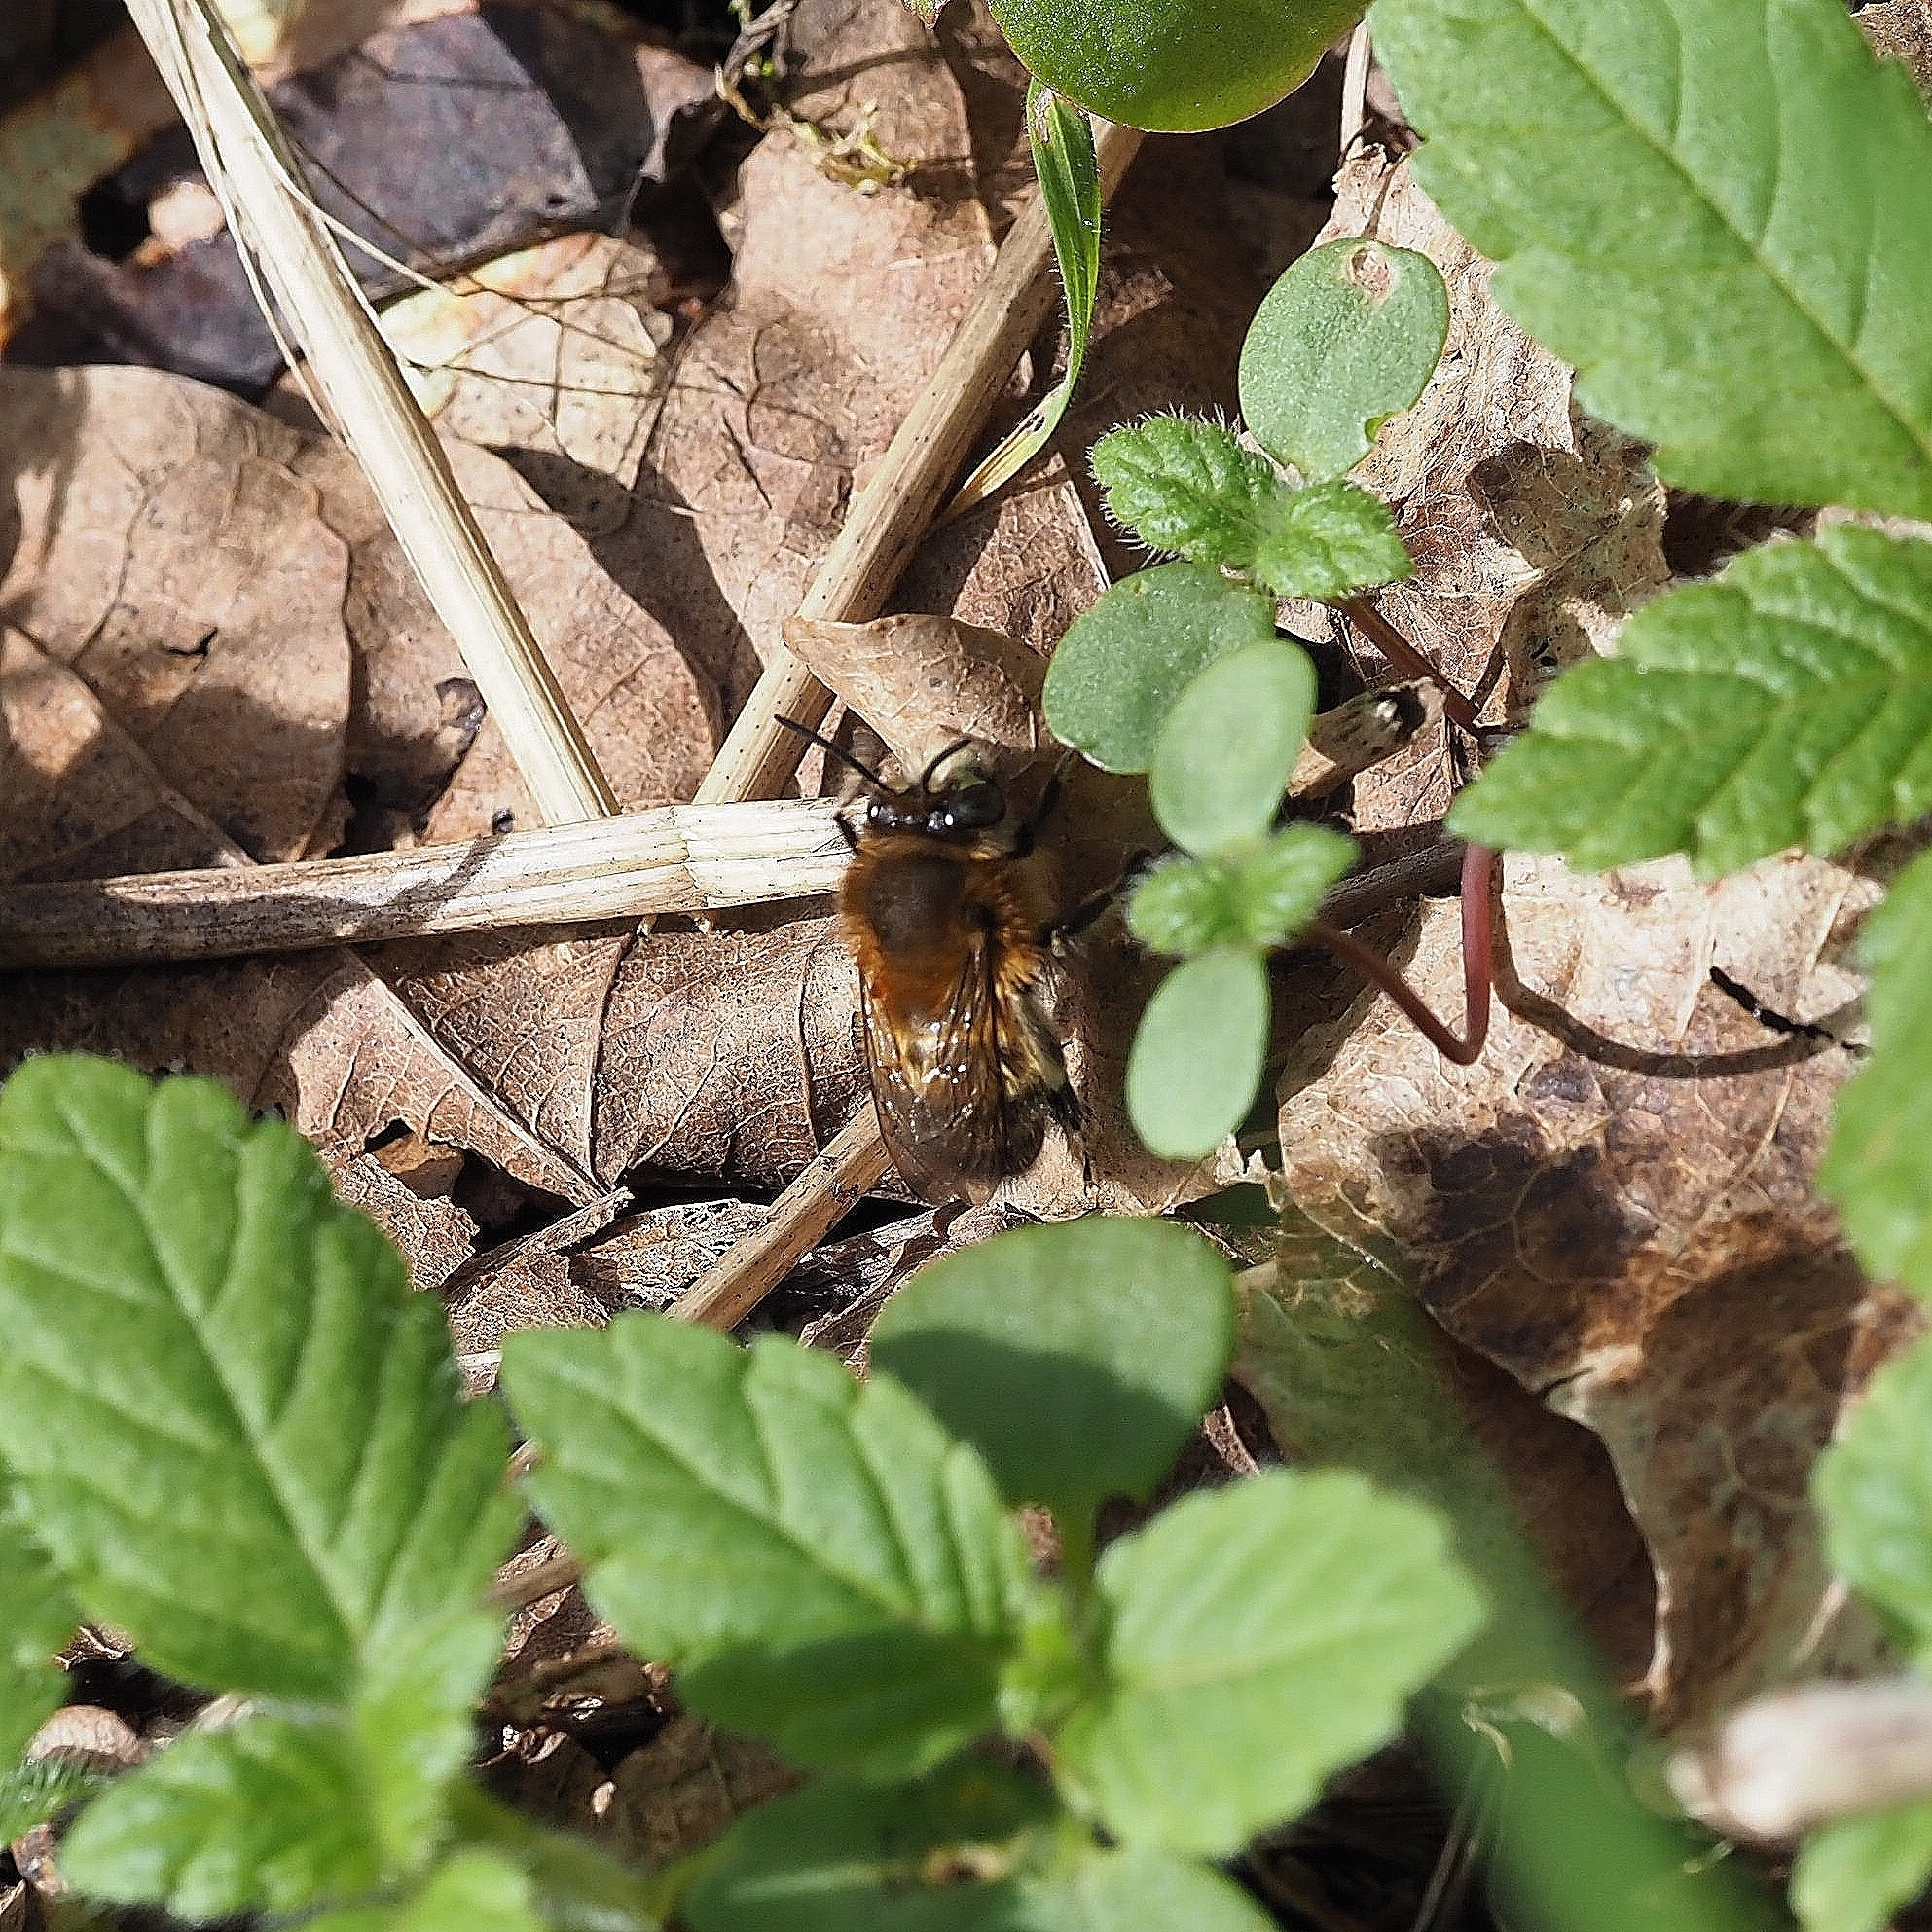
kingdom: Animalia
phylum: Arthropoda
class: Insecta
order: Hymenoptera
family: Apidae
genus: Anthophora
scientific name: Anthophora plumipes
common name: Hairy-footed flower bee
